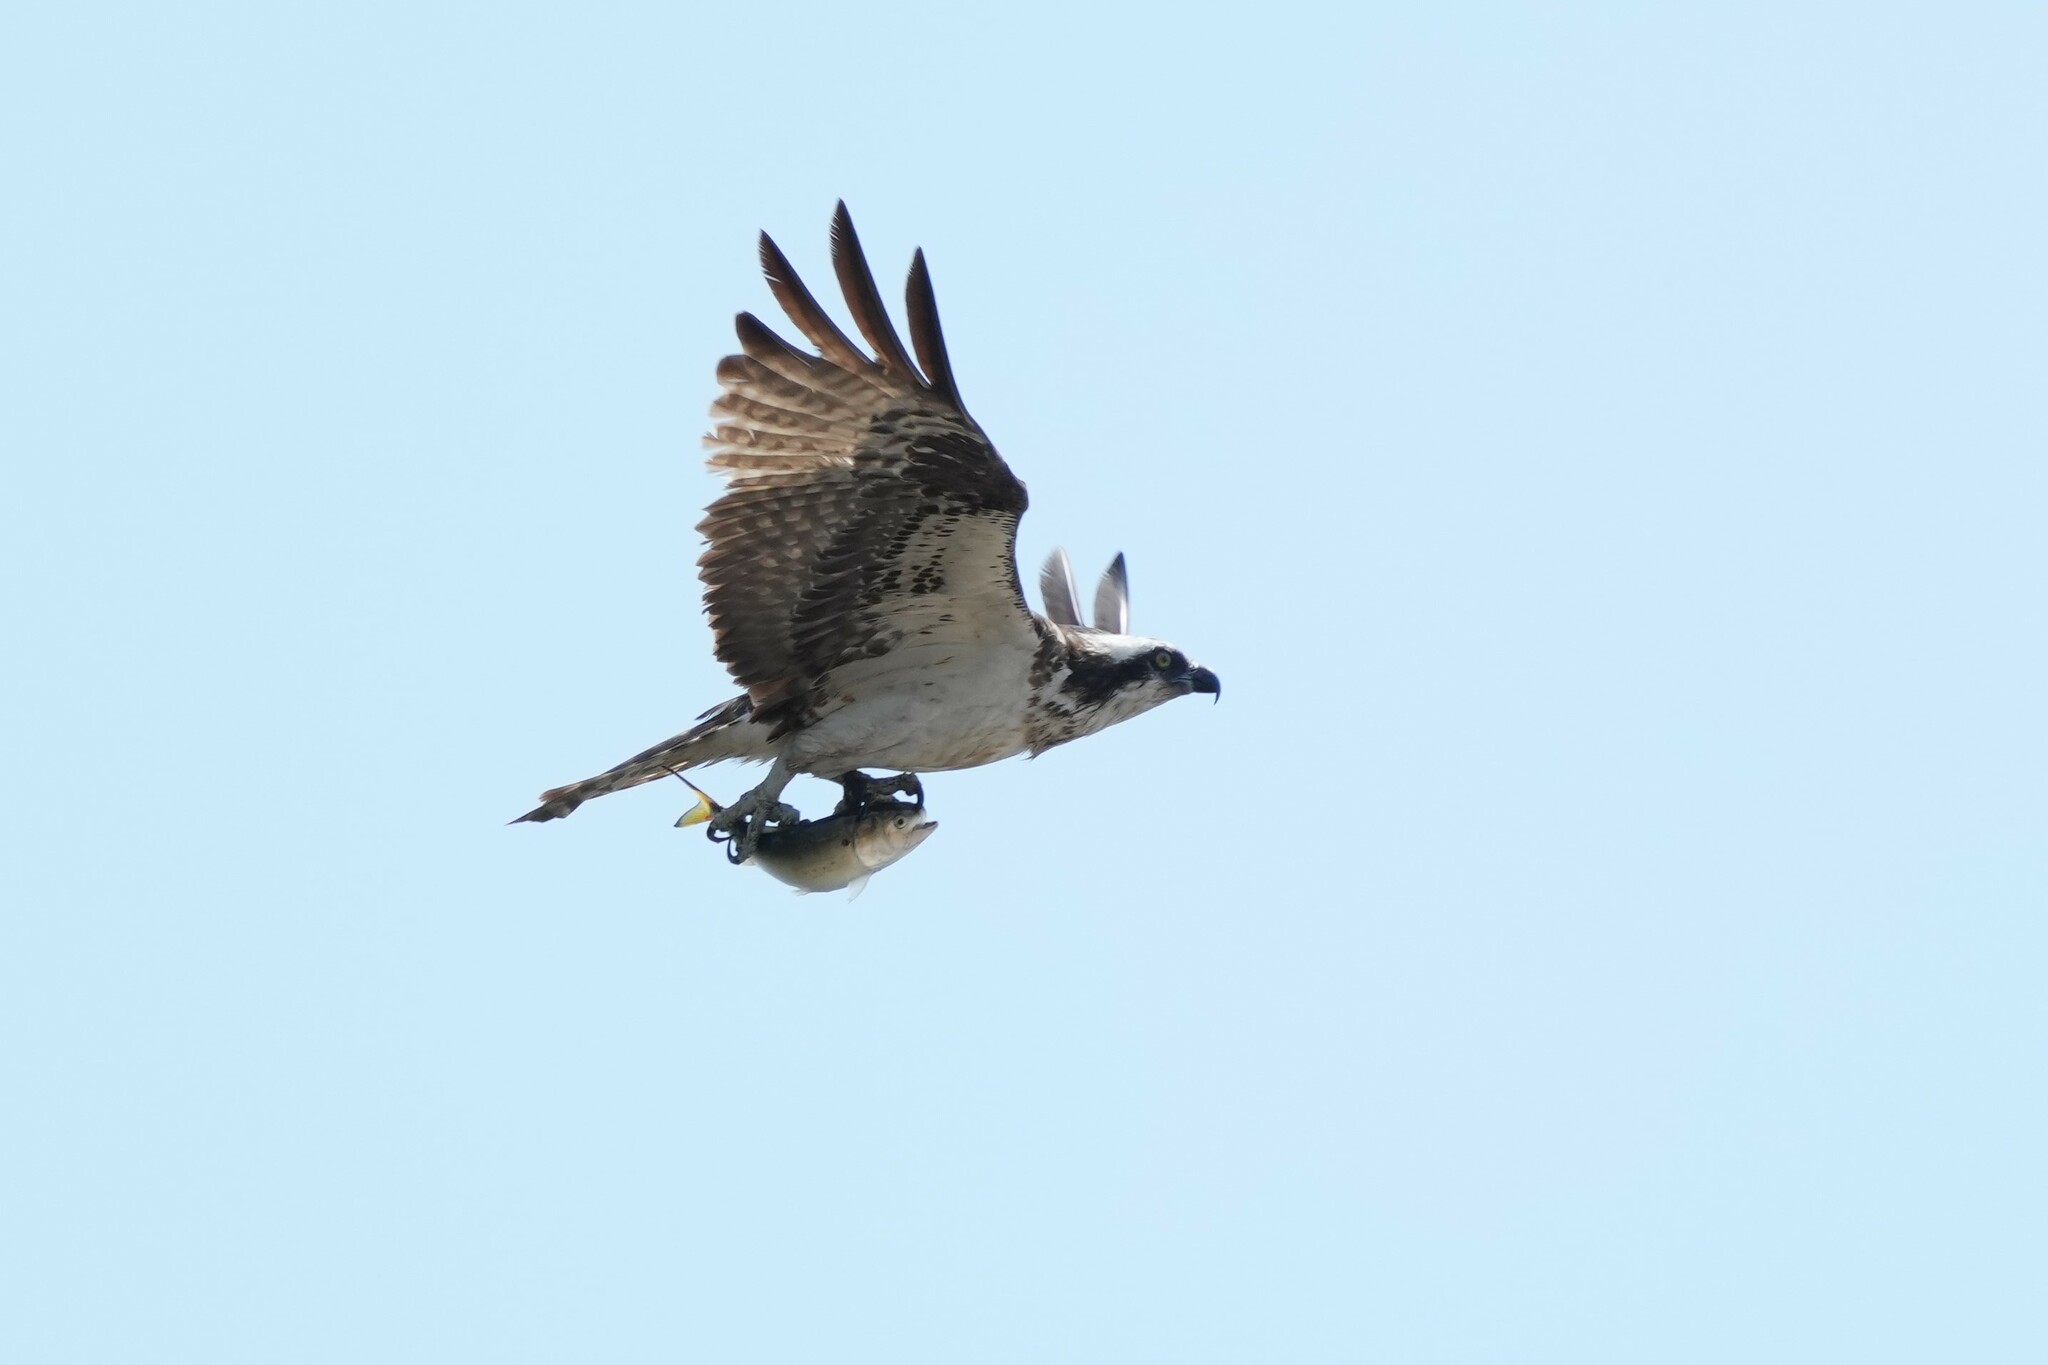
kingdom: Animalia
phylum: Chordata
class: Aves
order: Accipitriformes
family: Pandionidae
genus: Pandion
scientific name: Pandion haliaetus
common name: Osprey
